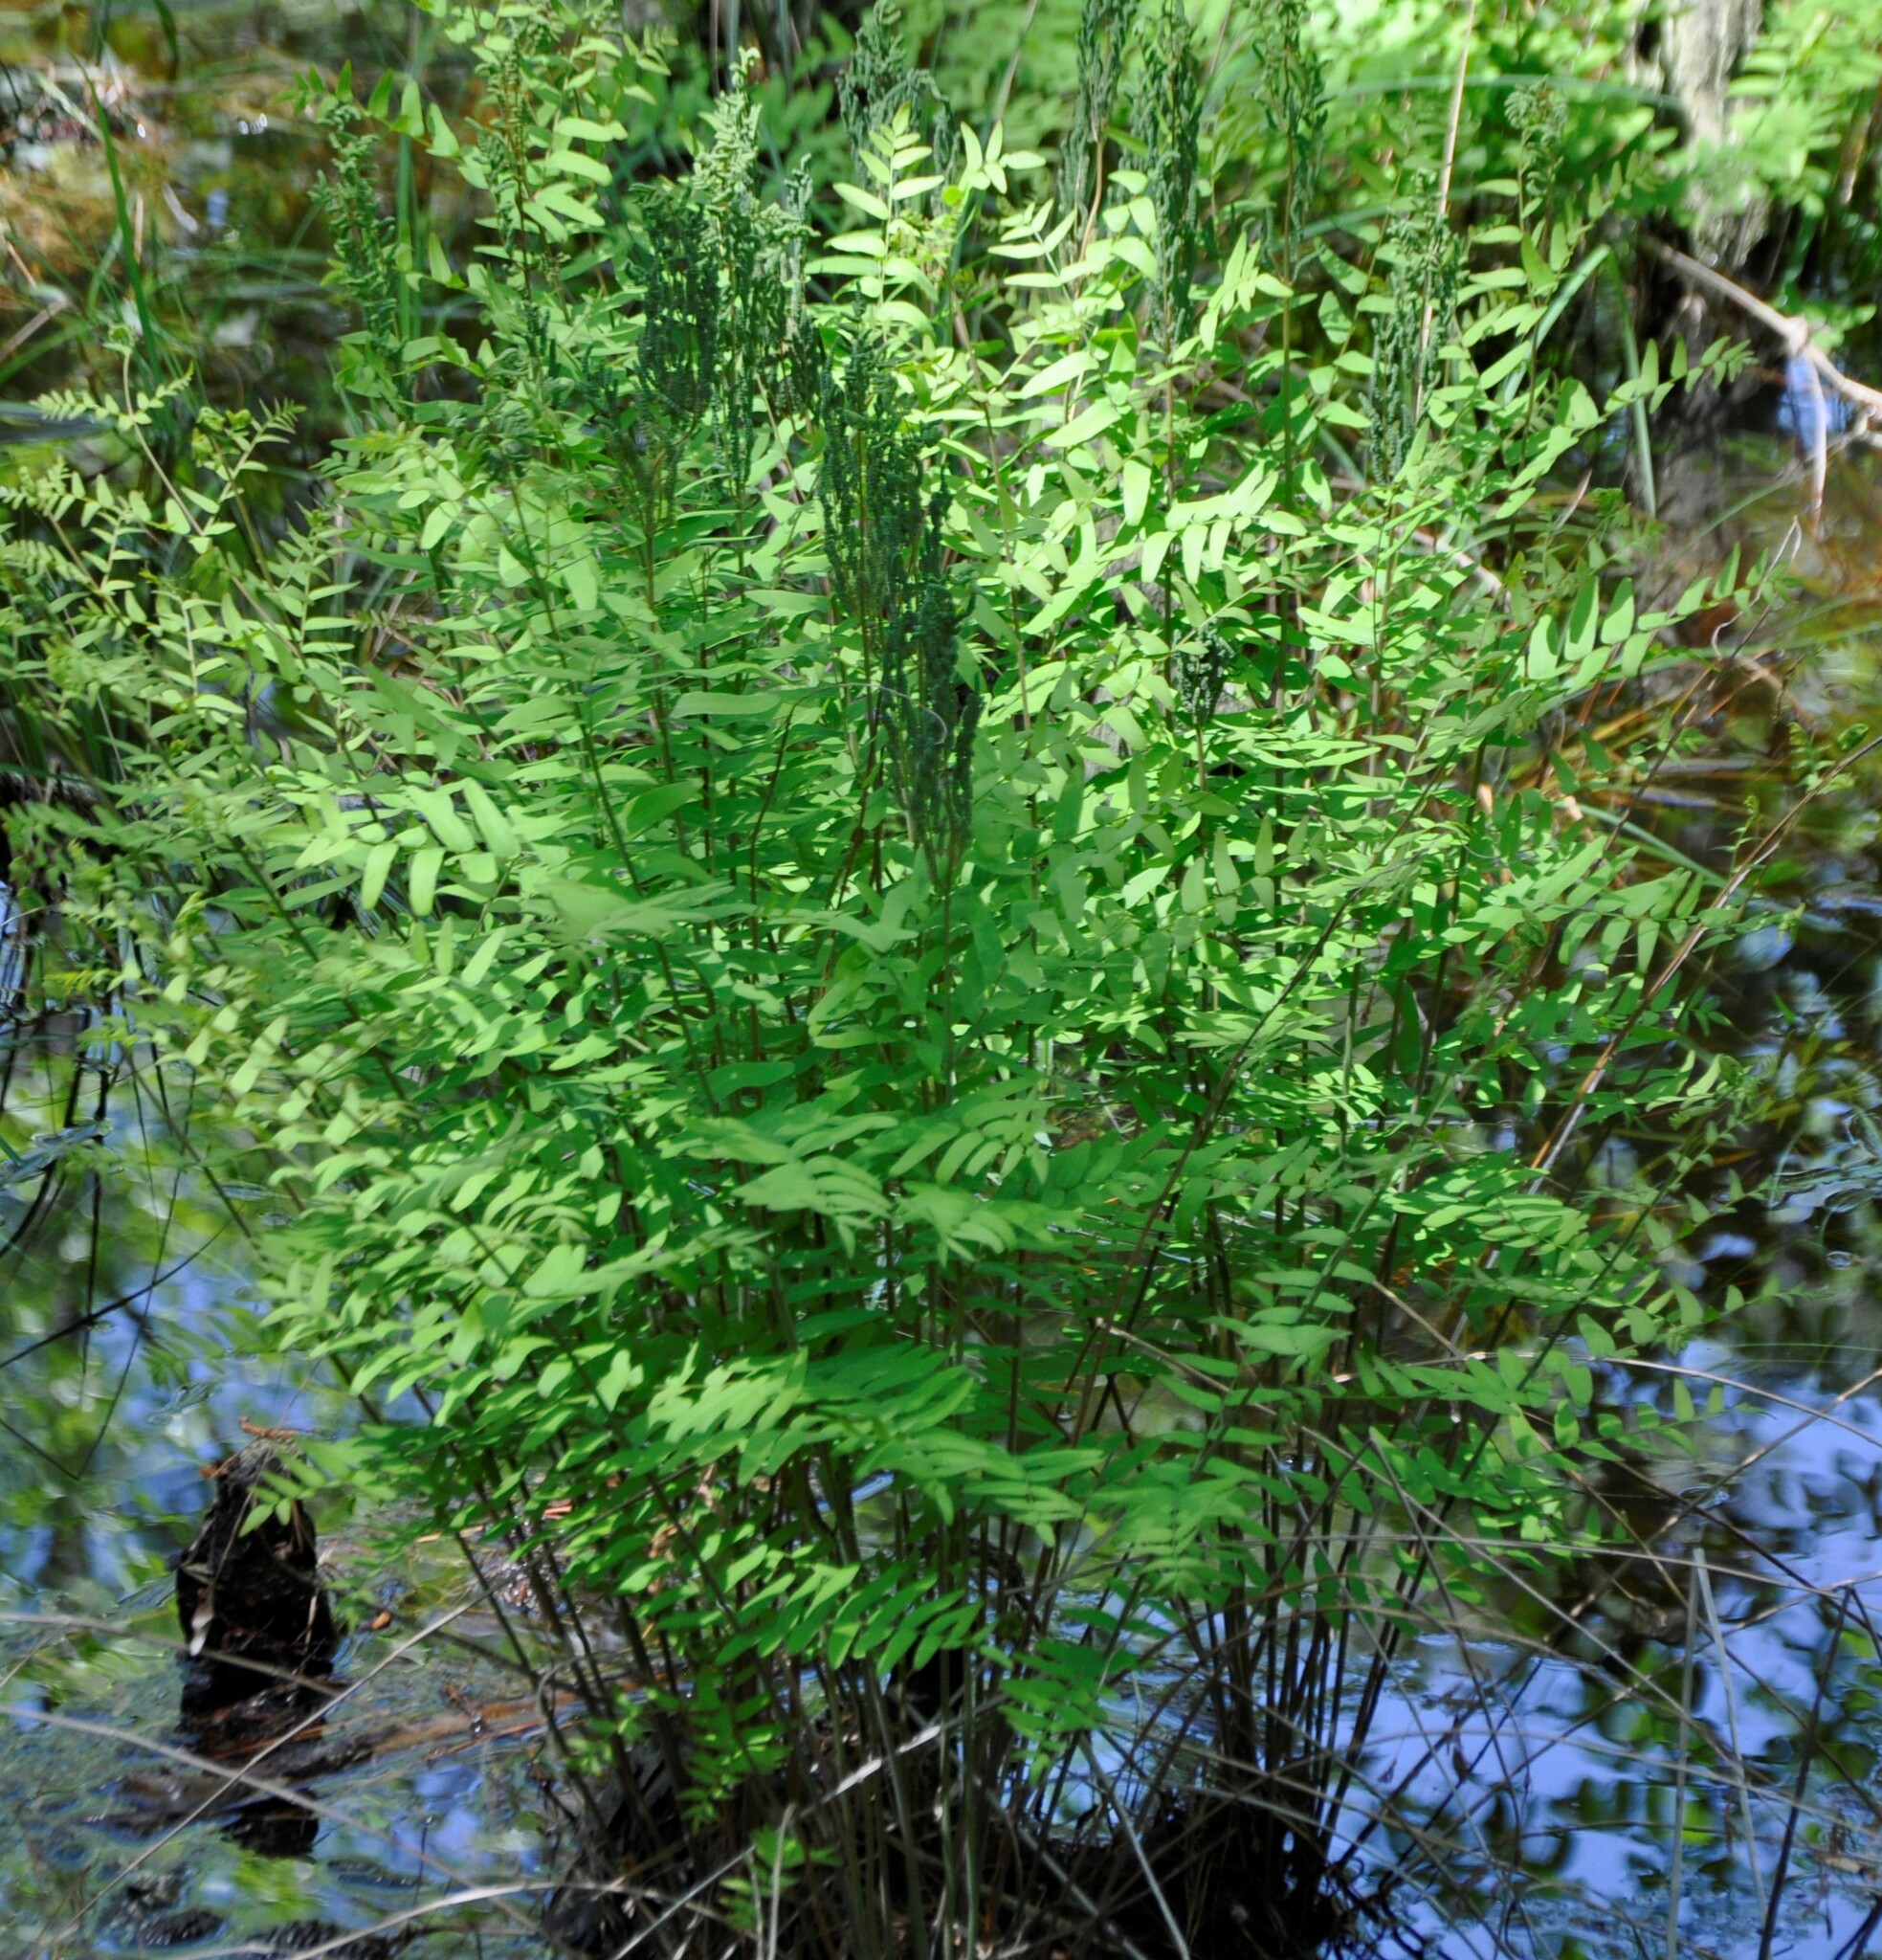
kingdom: Plantae
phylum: Tracheophyta
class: Polypodiopsida
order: Osmundales
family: Osmundaceae
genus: Osmunda
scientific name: Osmunda spectabilis
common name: American royal fern
